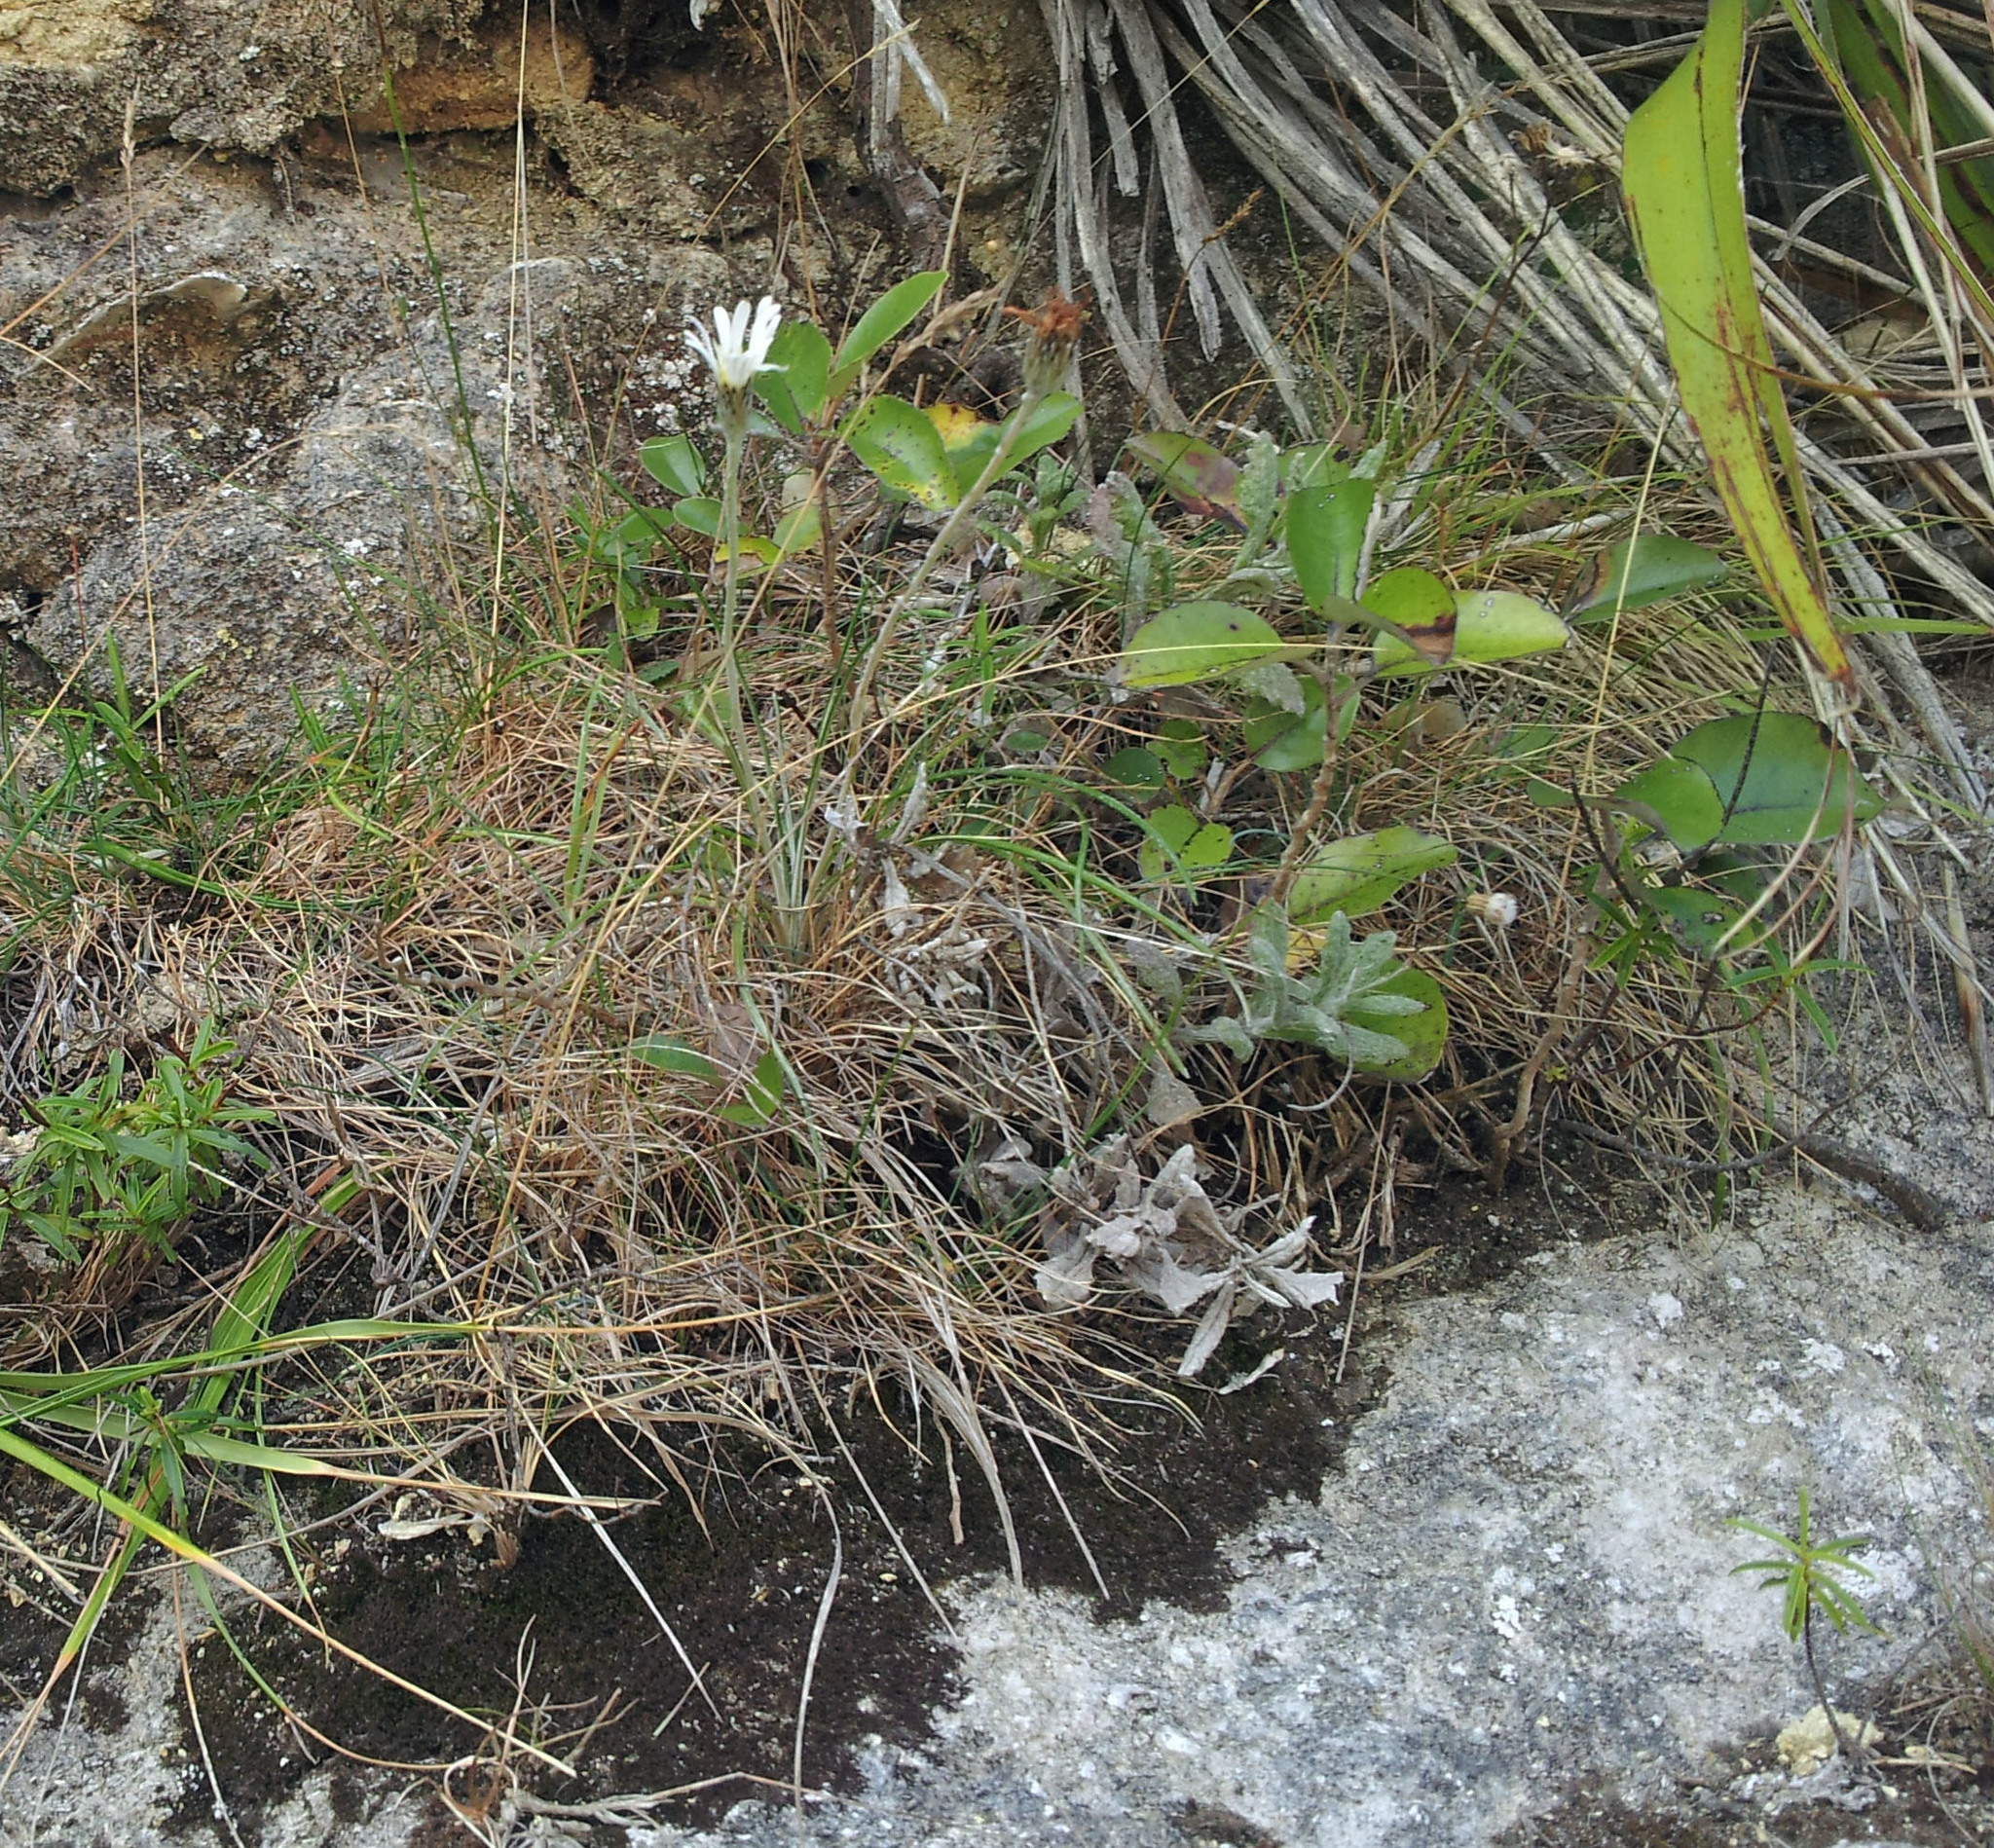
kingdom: Plantae
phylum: Tracheophyta
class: Magnoliopsida
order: Asterales
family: Asteraceae
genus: Celmisia
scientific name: Celmisia gracilenta
